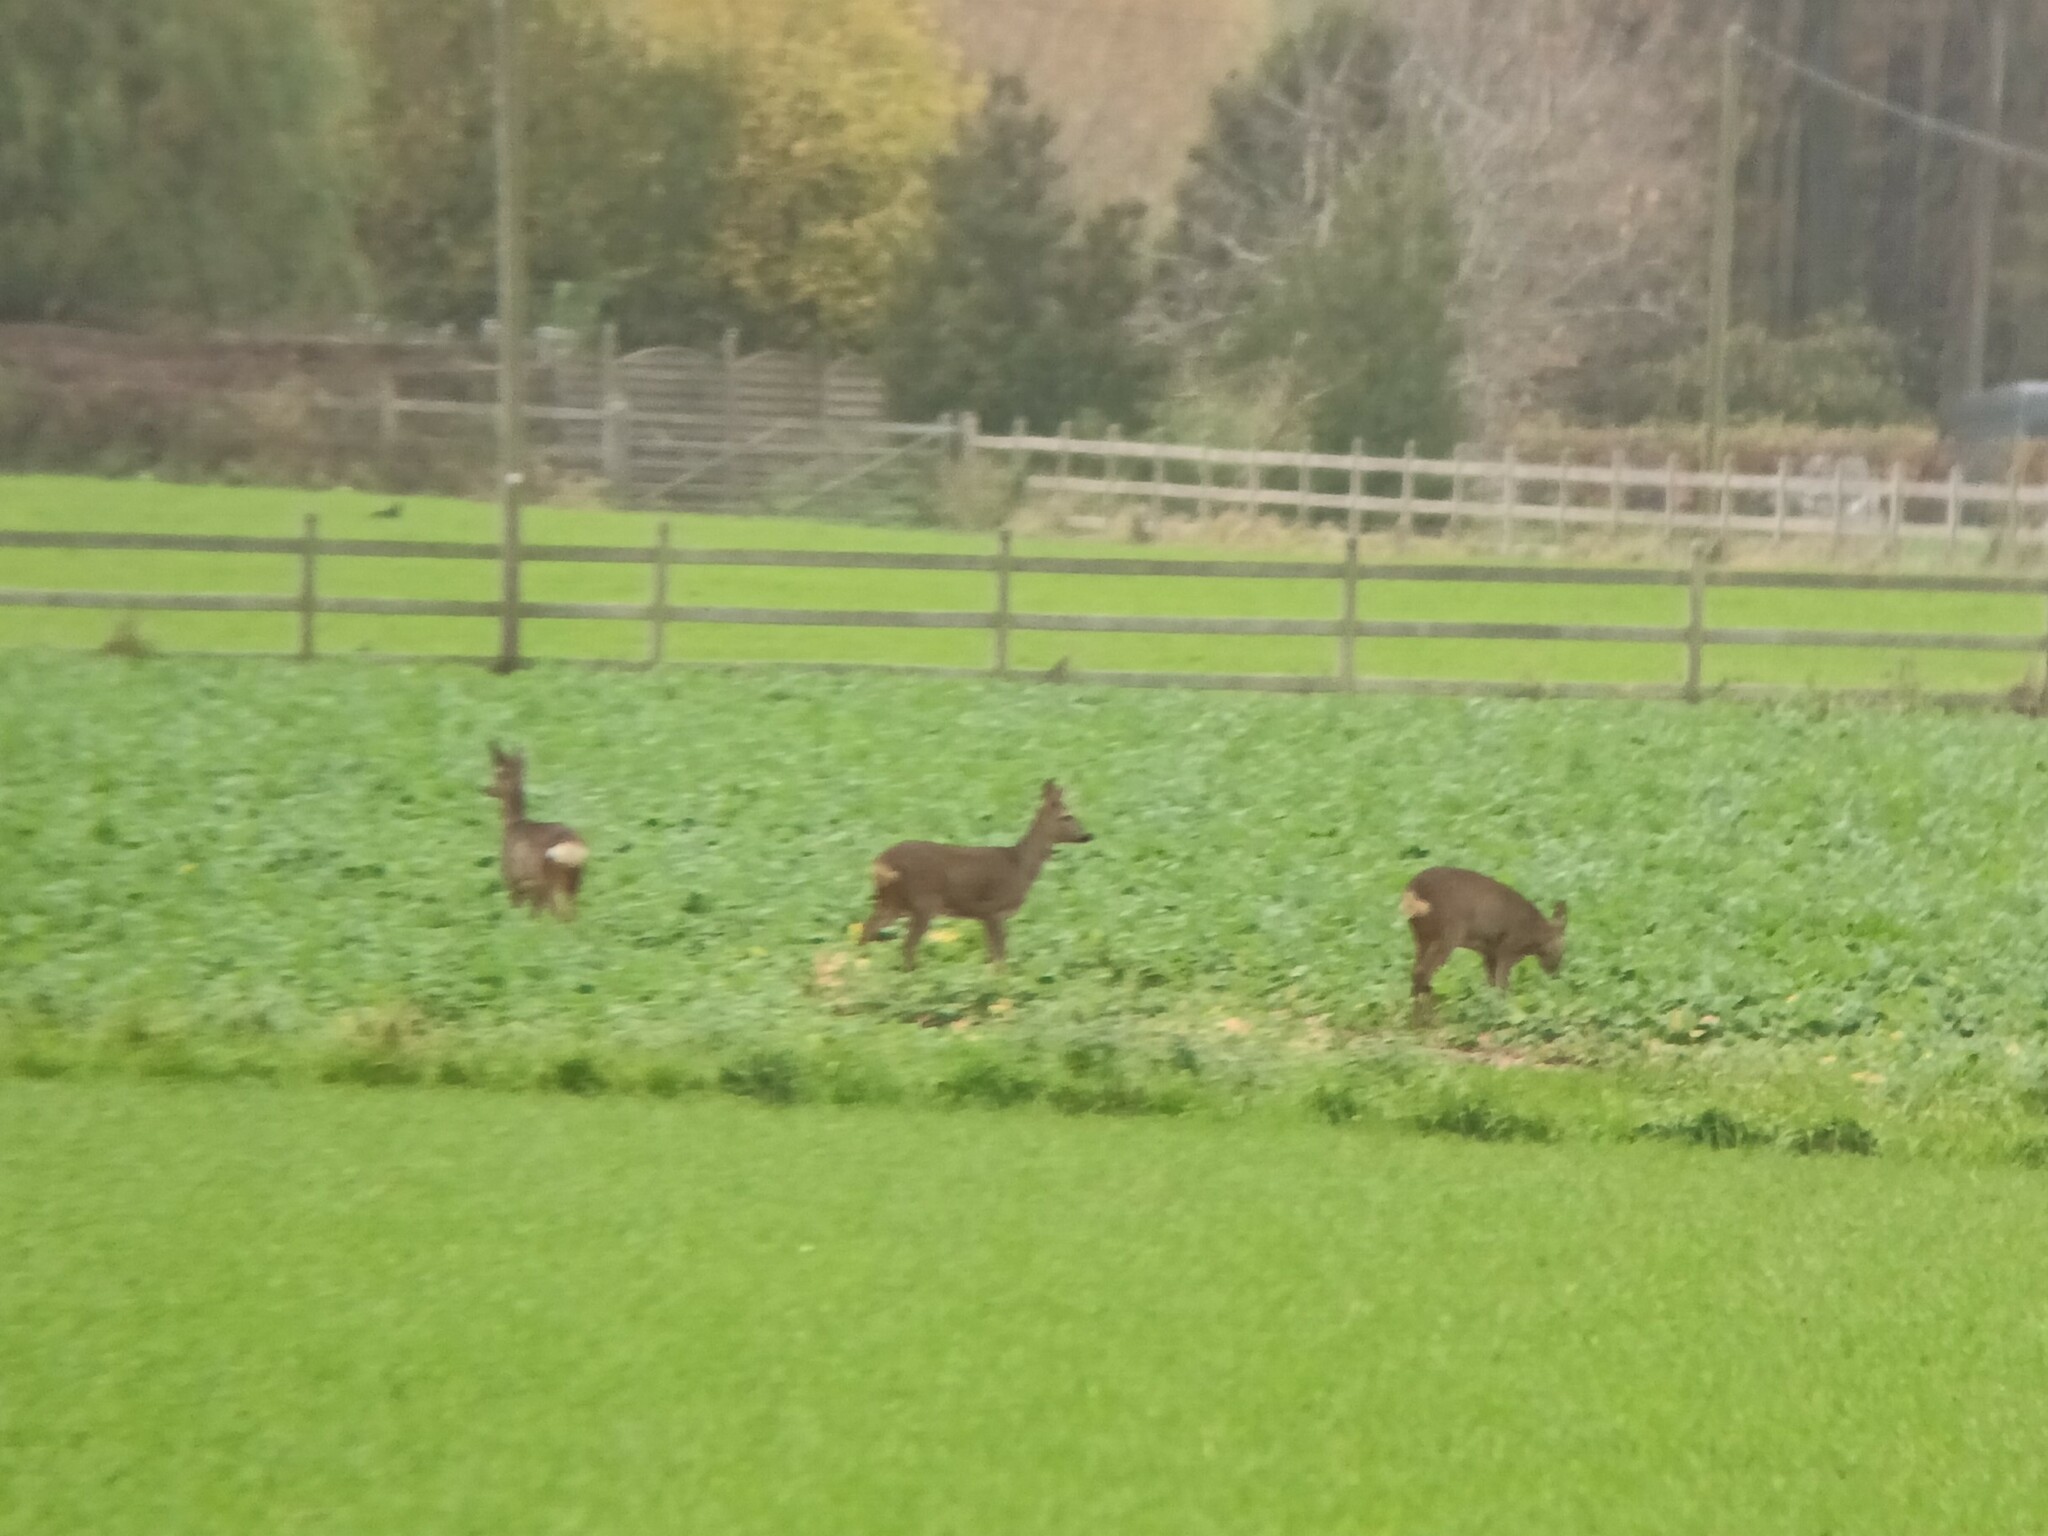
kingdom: Animalia
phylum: Chordata
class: Mammalia
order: Artiodactyla
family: Cervidae
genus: Capreolus
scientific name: Capreolus capreolus
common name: Western roe deer
